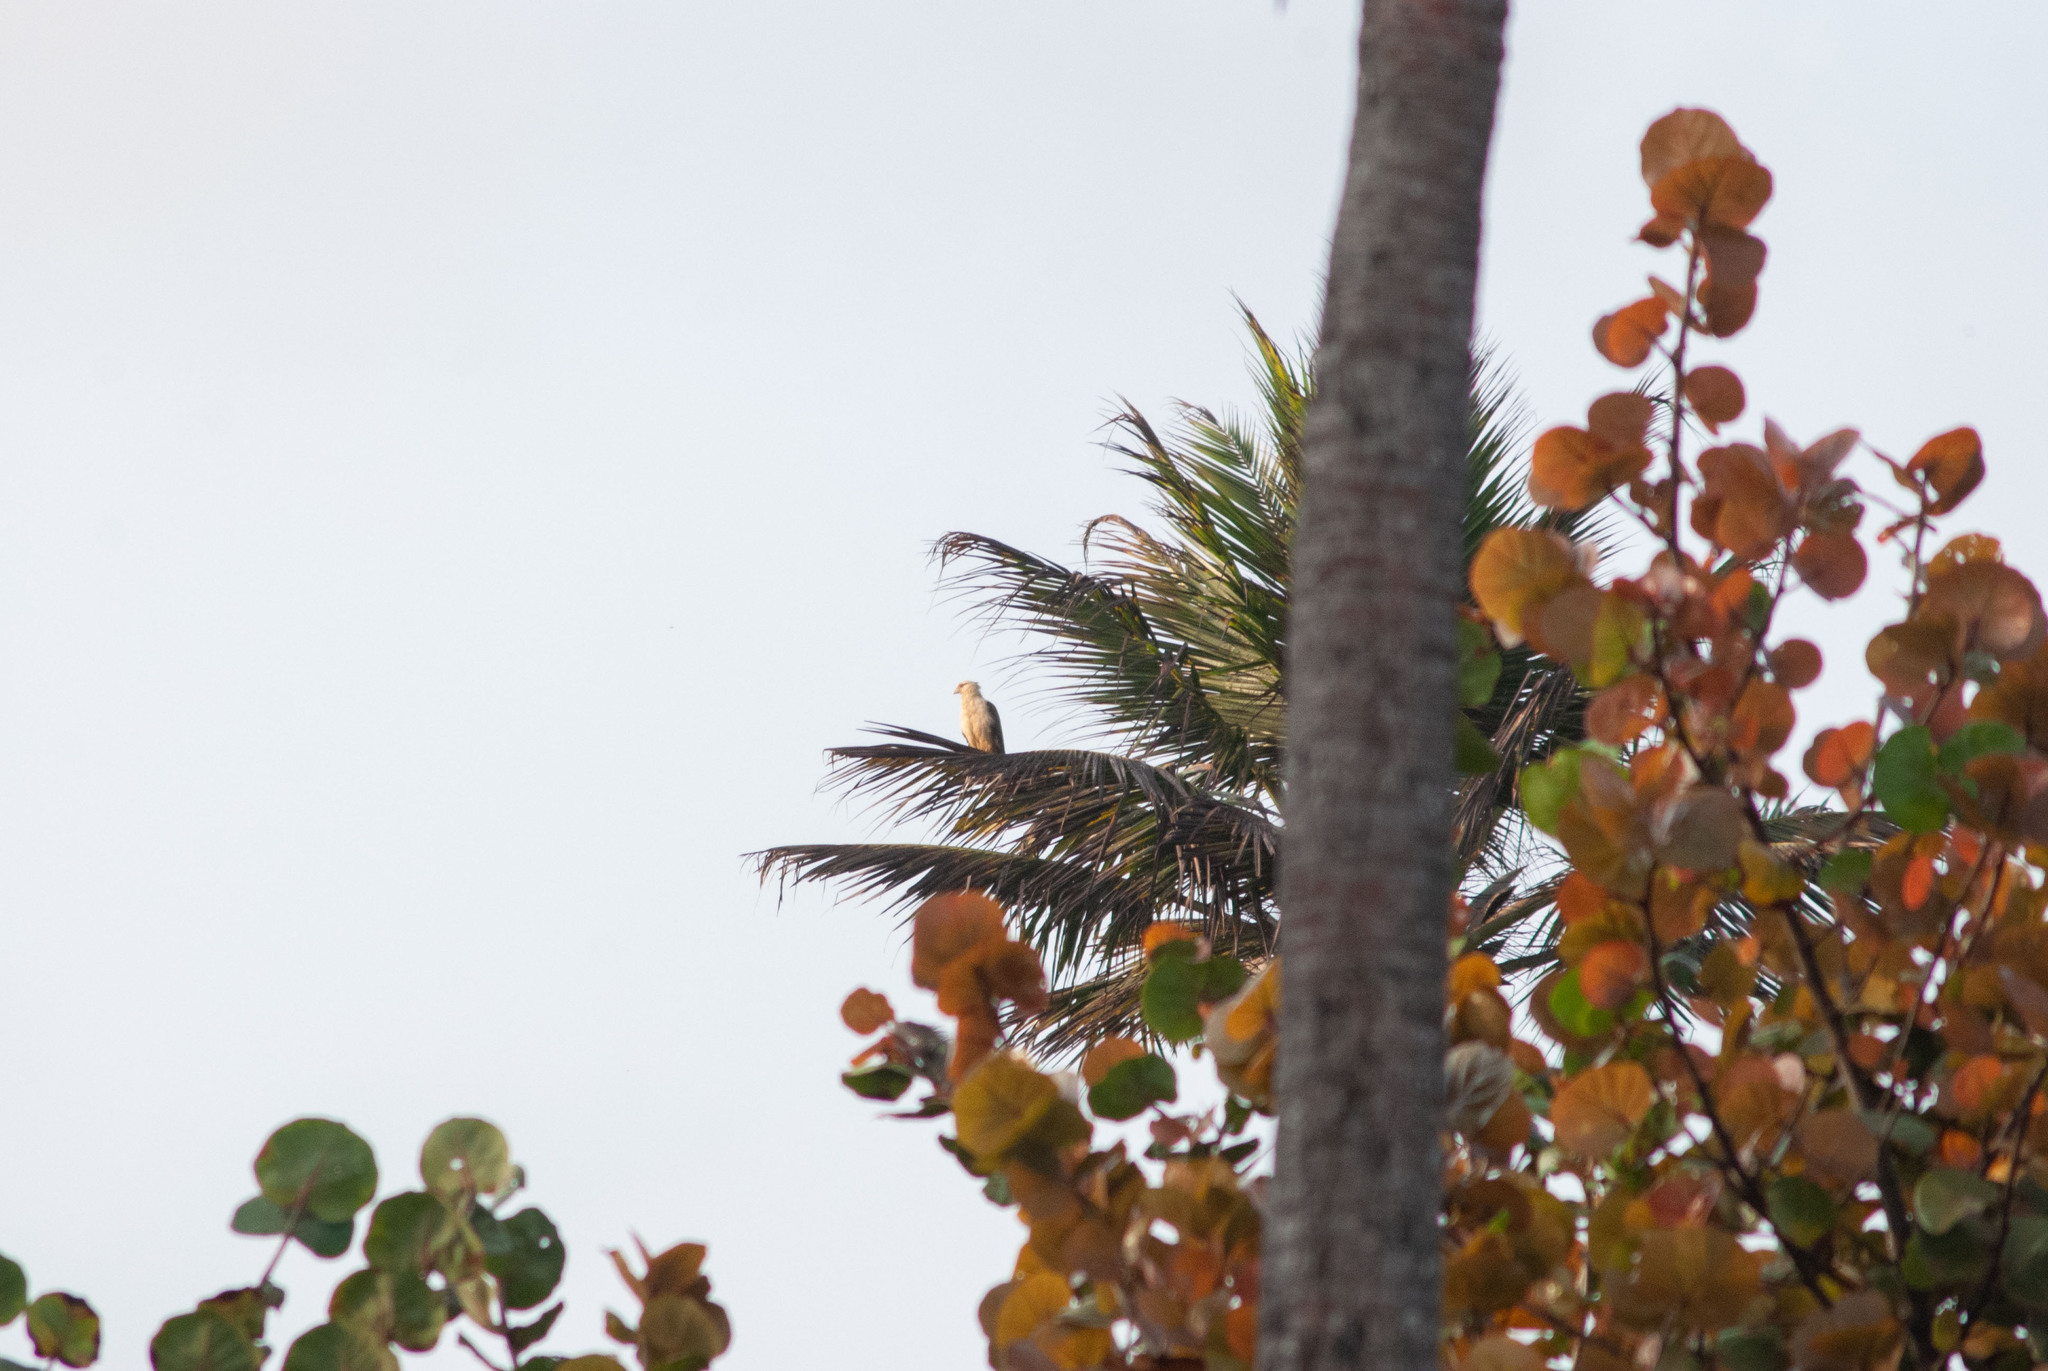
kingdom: Animalia
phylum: Chordata
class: Aves
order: Falconiformes
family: Falconidae
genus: Daptrius
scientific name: Daptrius
